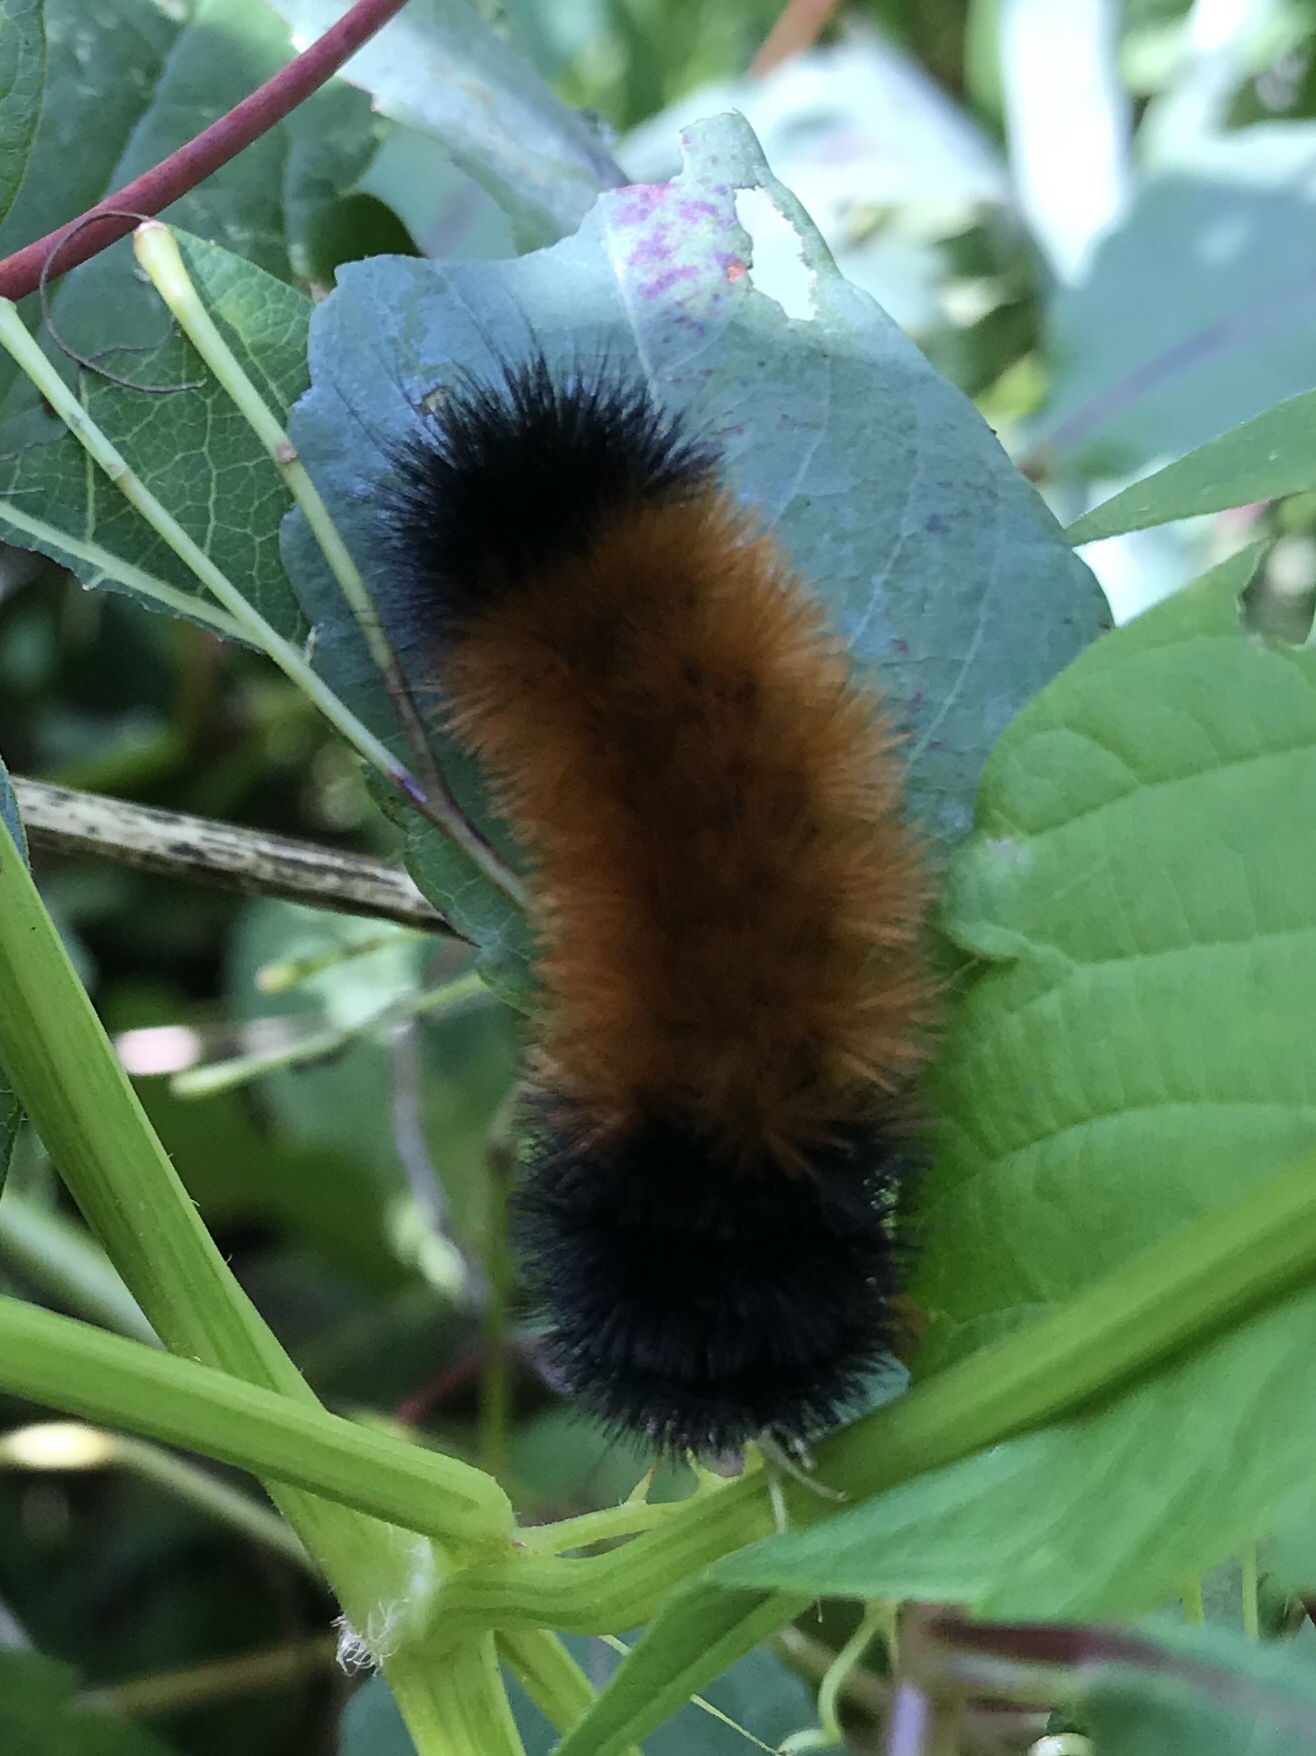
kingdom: Animalia
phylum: Arthropoda
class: Insecta
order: Lepidoptera
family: Erebidae
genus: Pyrrharctia
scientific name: Pyrrharctia isabella
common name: Isabella tiger moth
